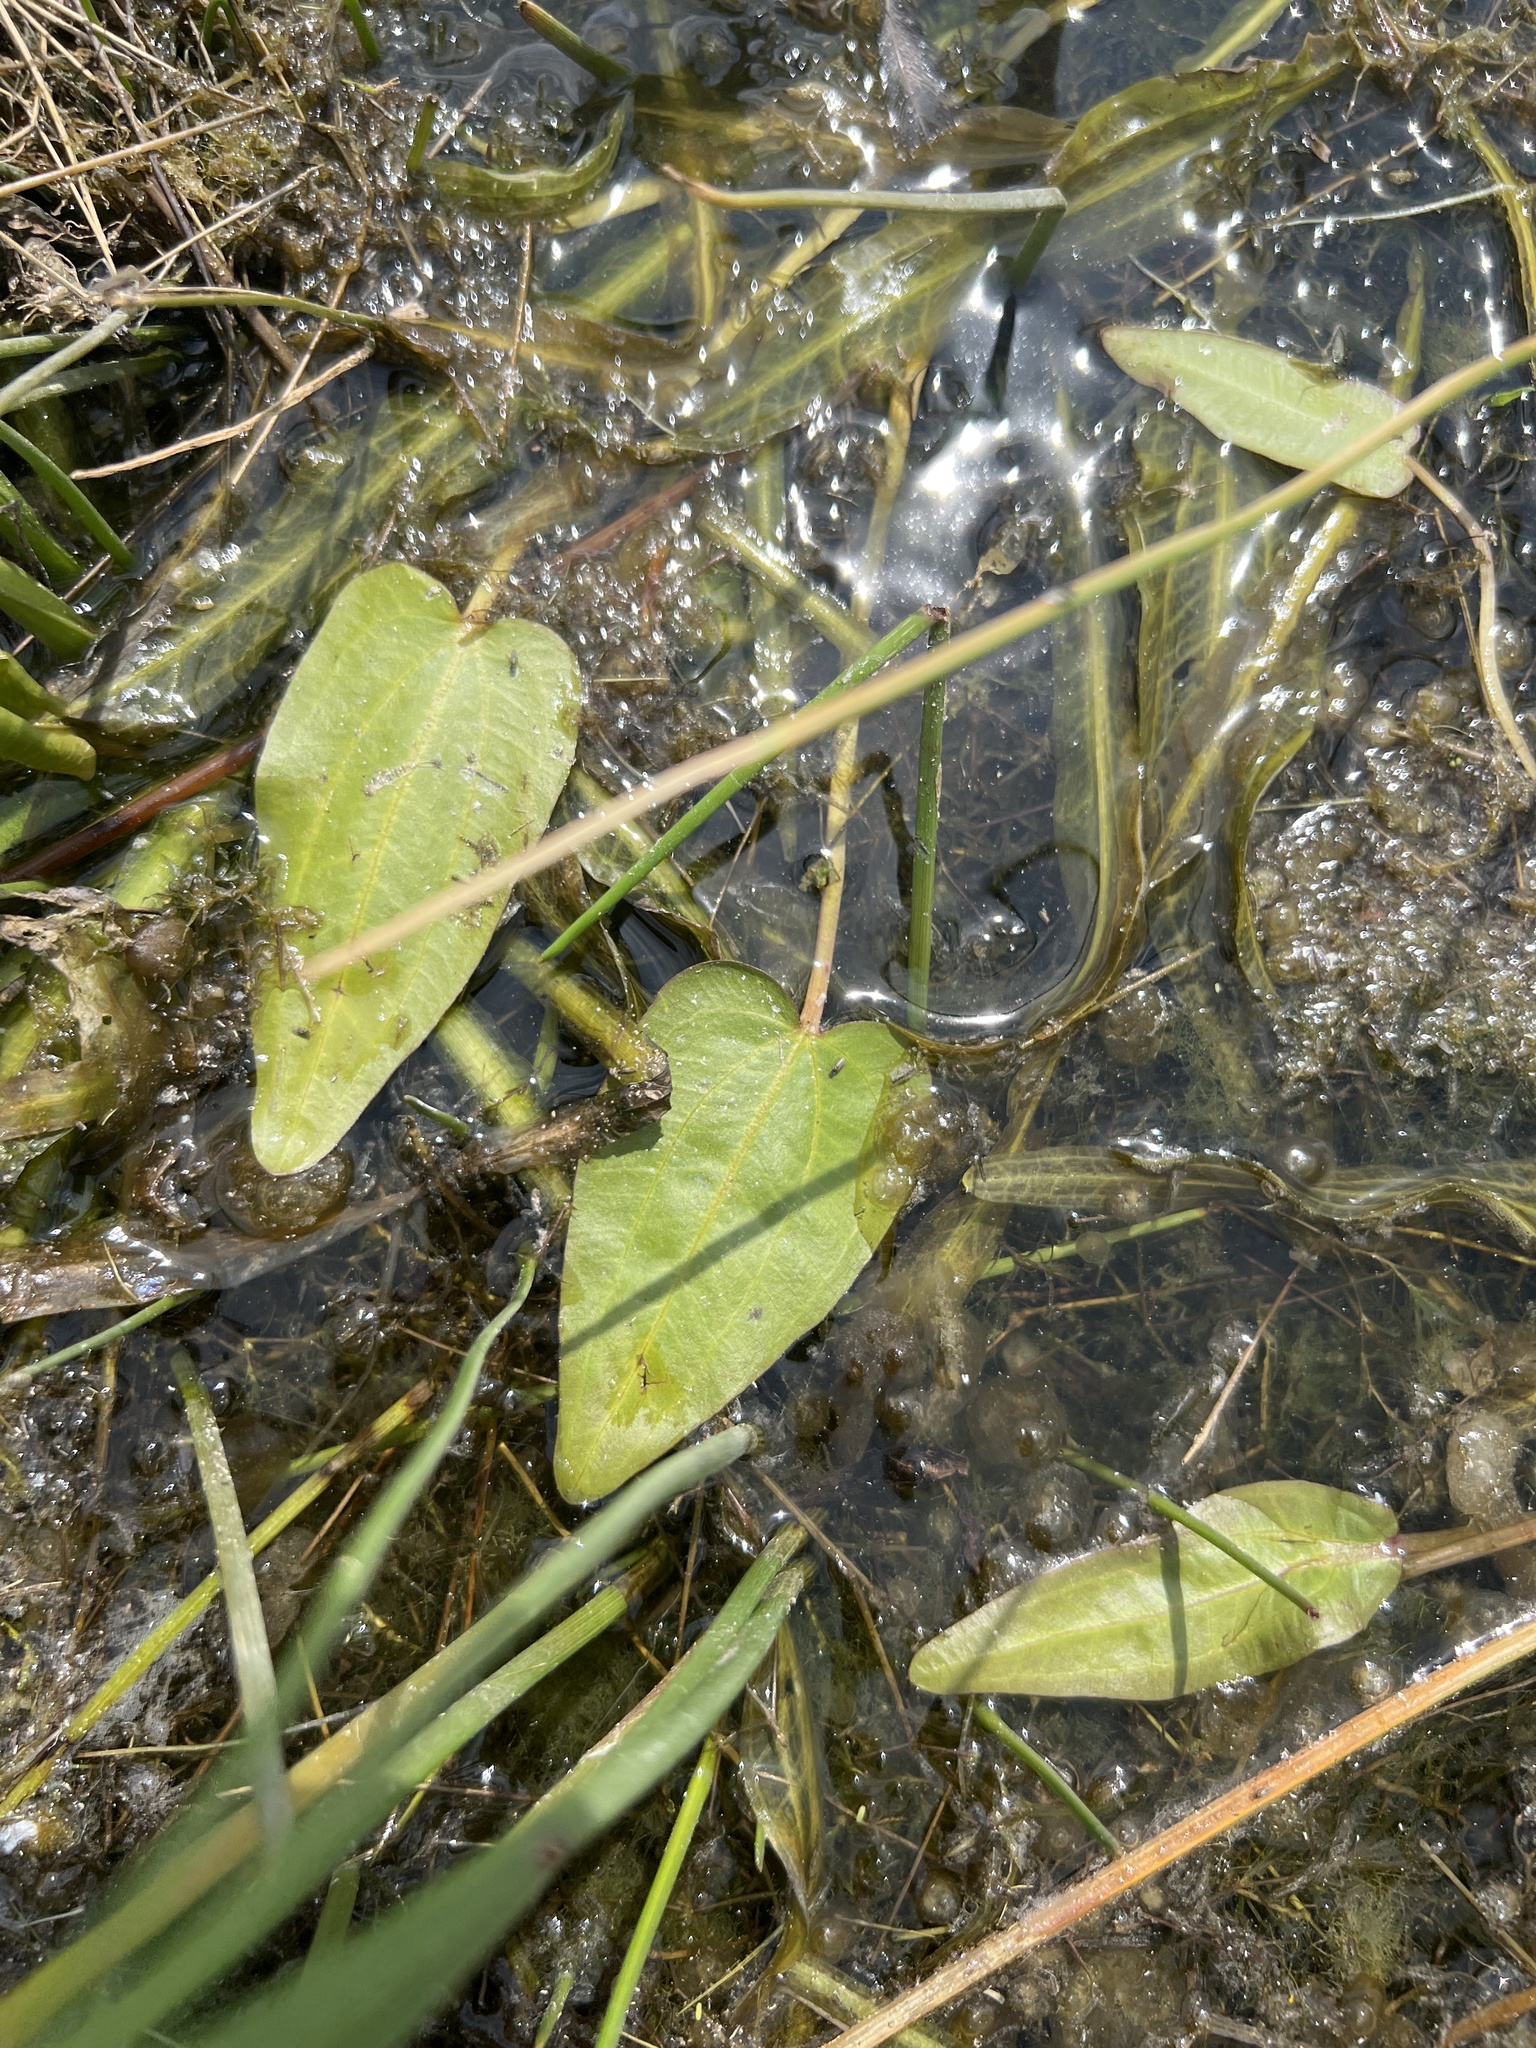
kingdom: Plantae
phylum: Tracheophyta
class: Liliopsida
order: Alismatales
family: Alismataceae
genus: Echinodorus
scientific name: Echinodorus berteroi
